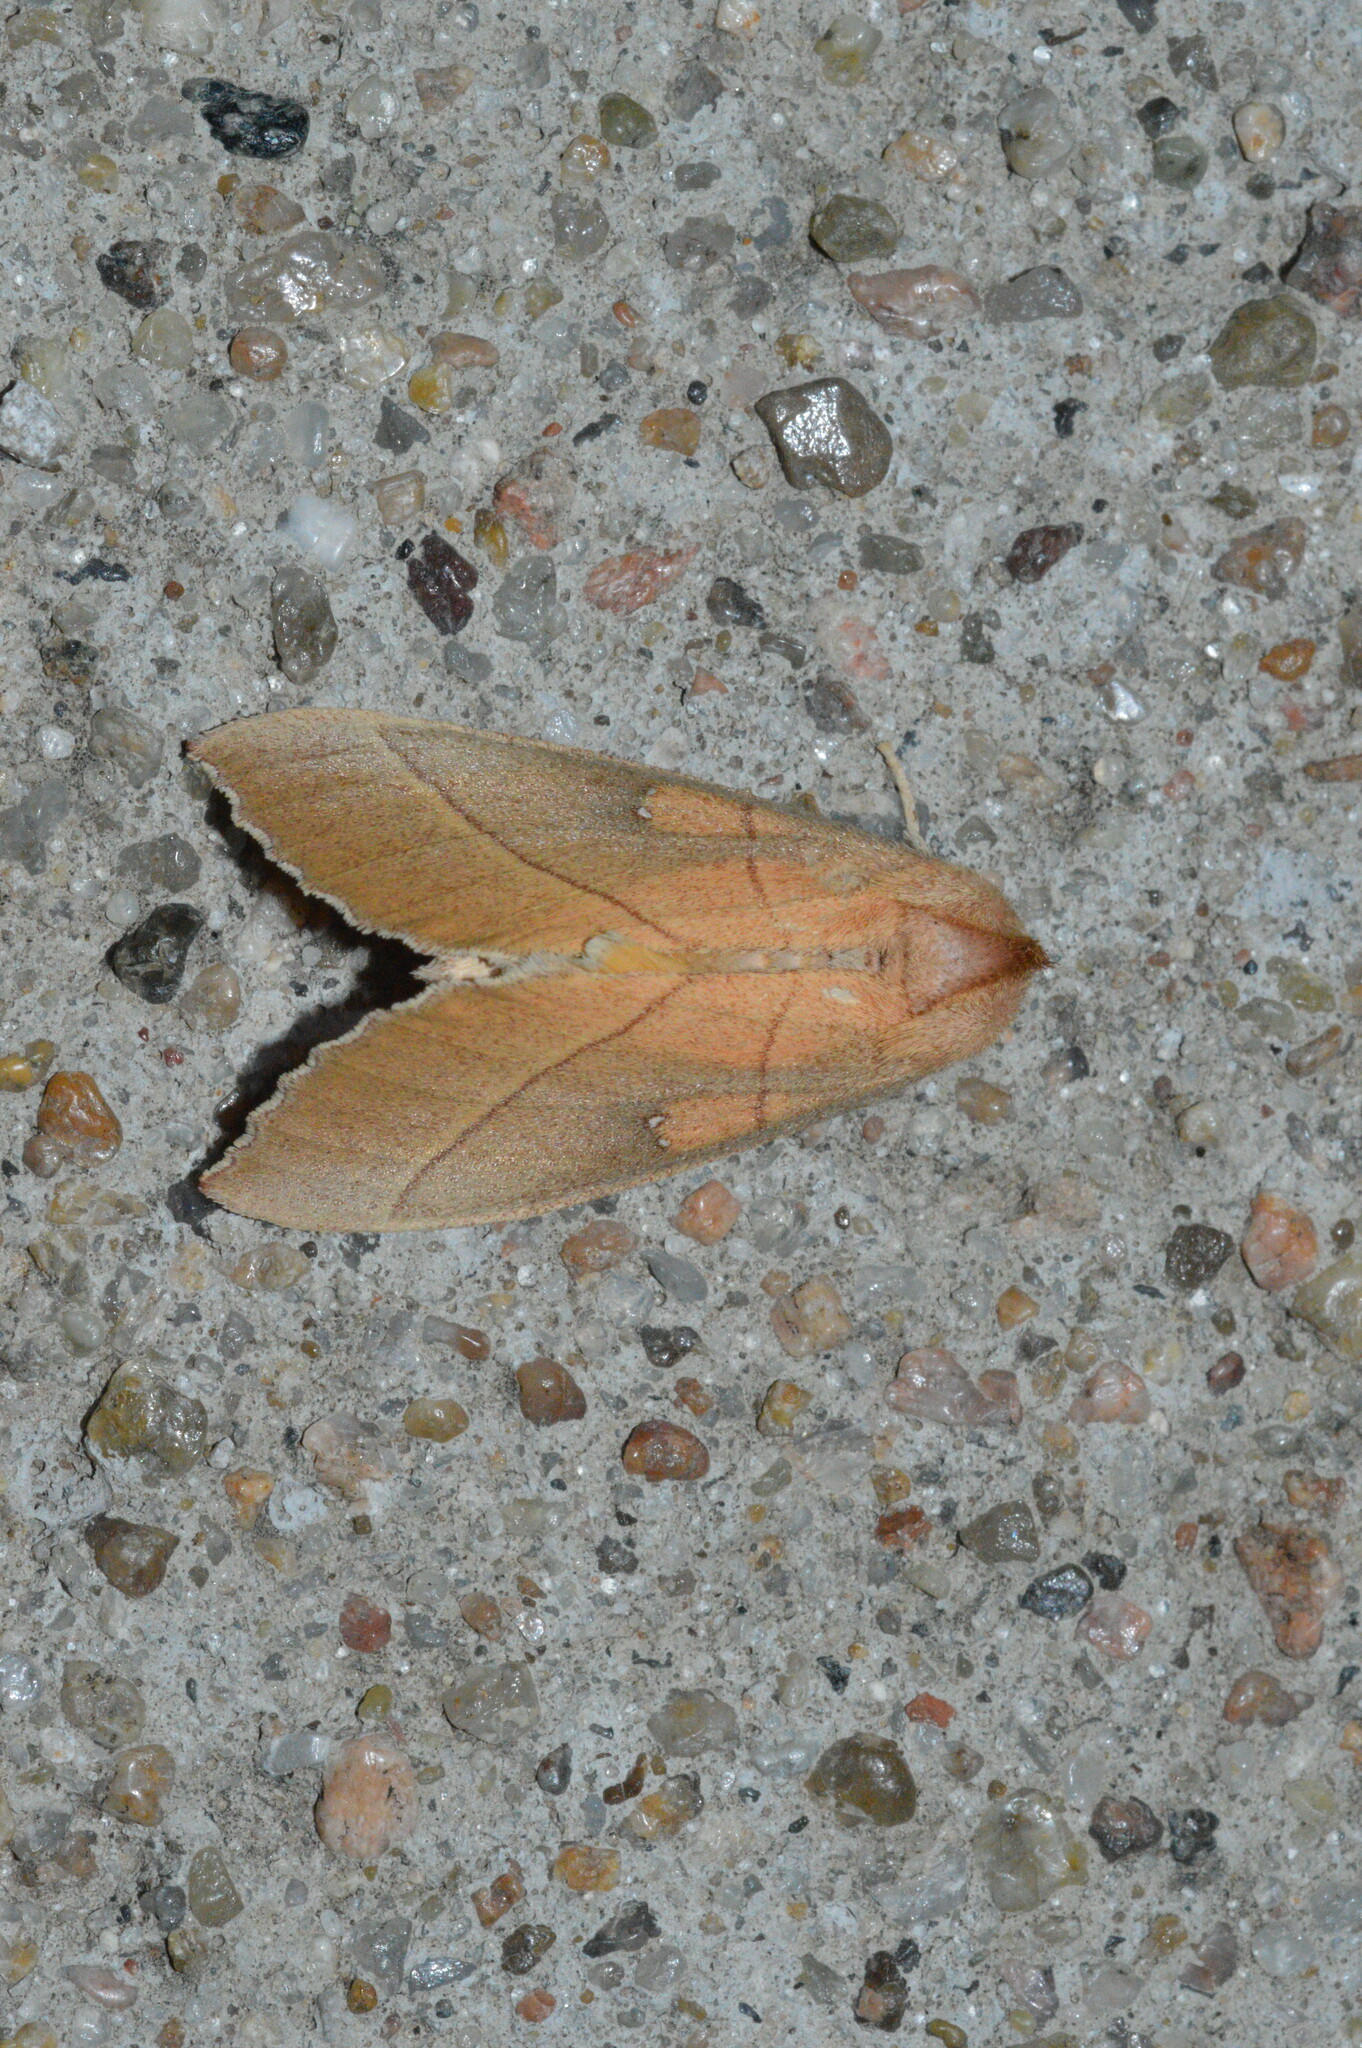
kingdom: Animalia
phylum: Arthropoda
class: Insecta
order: Lepidoptera
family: Notodontidae
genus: Nadata
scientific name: Nadata gibbosa
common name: White-dotted prominent
